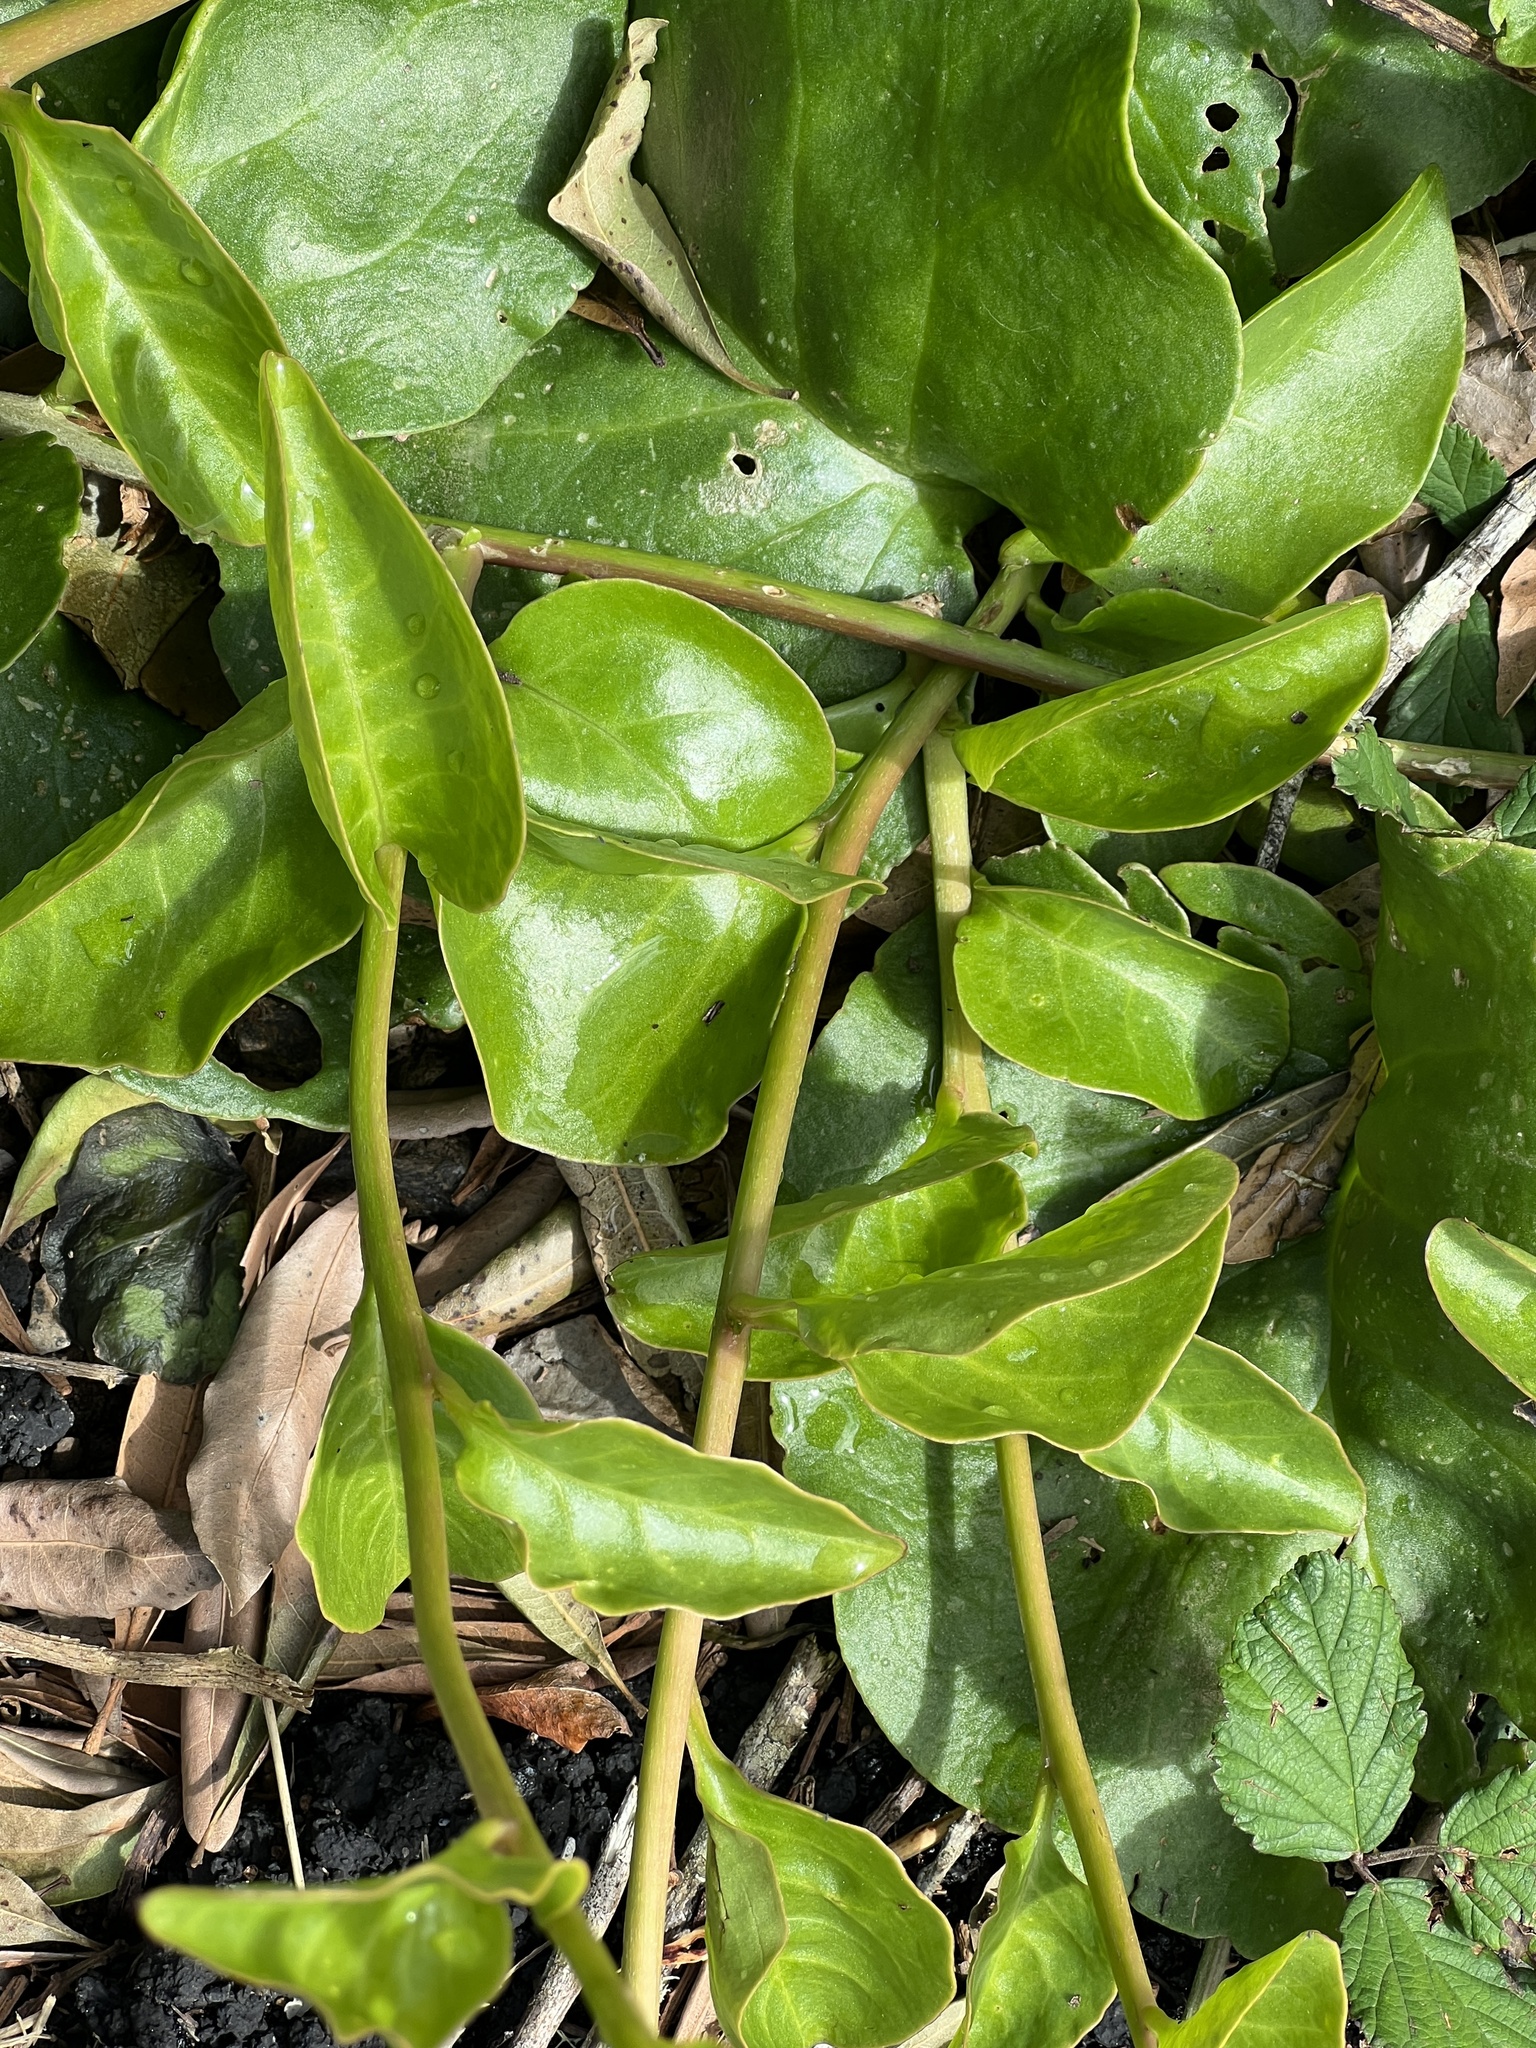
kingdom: Plantae
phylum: Tracheophyta
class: Magnoliopsida
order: Caryophyllales
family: Basellaceae
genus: Anredera
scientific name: Anredera cordifolia
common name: Heartleaf madeiravine
